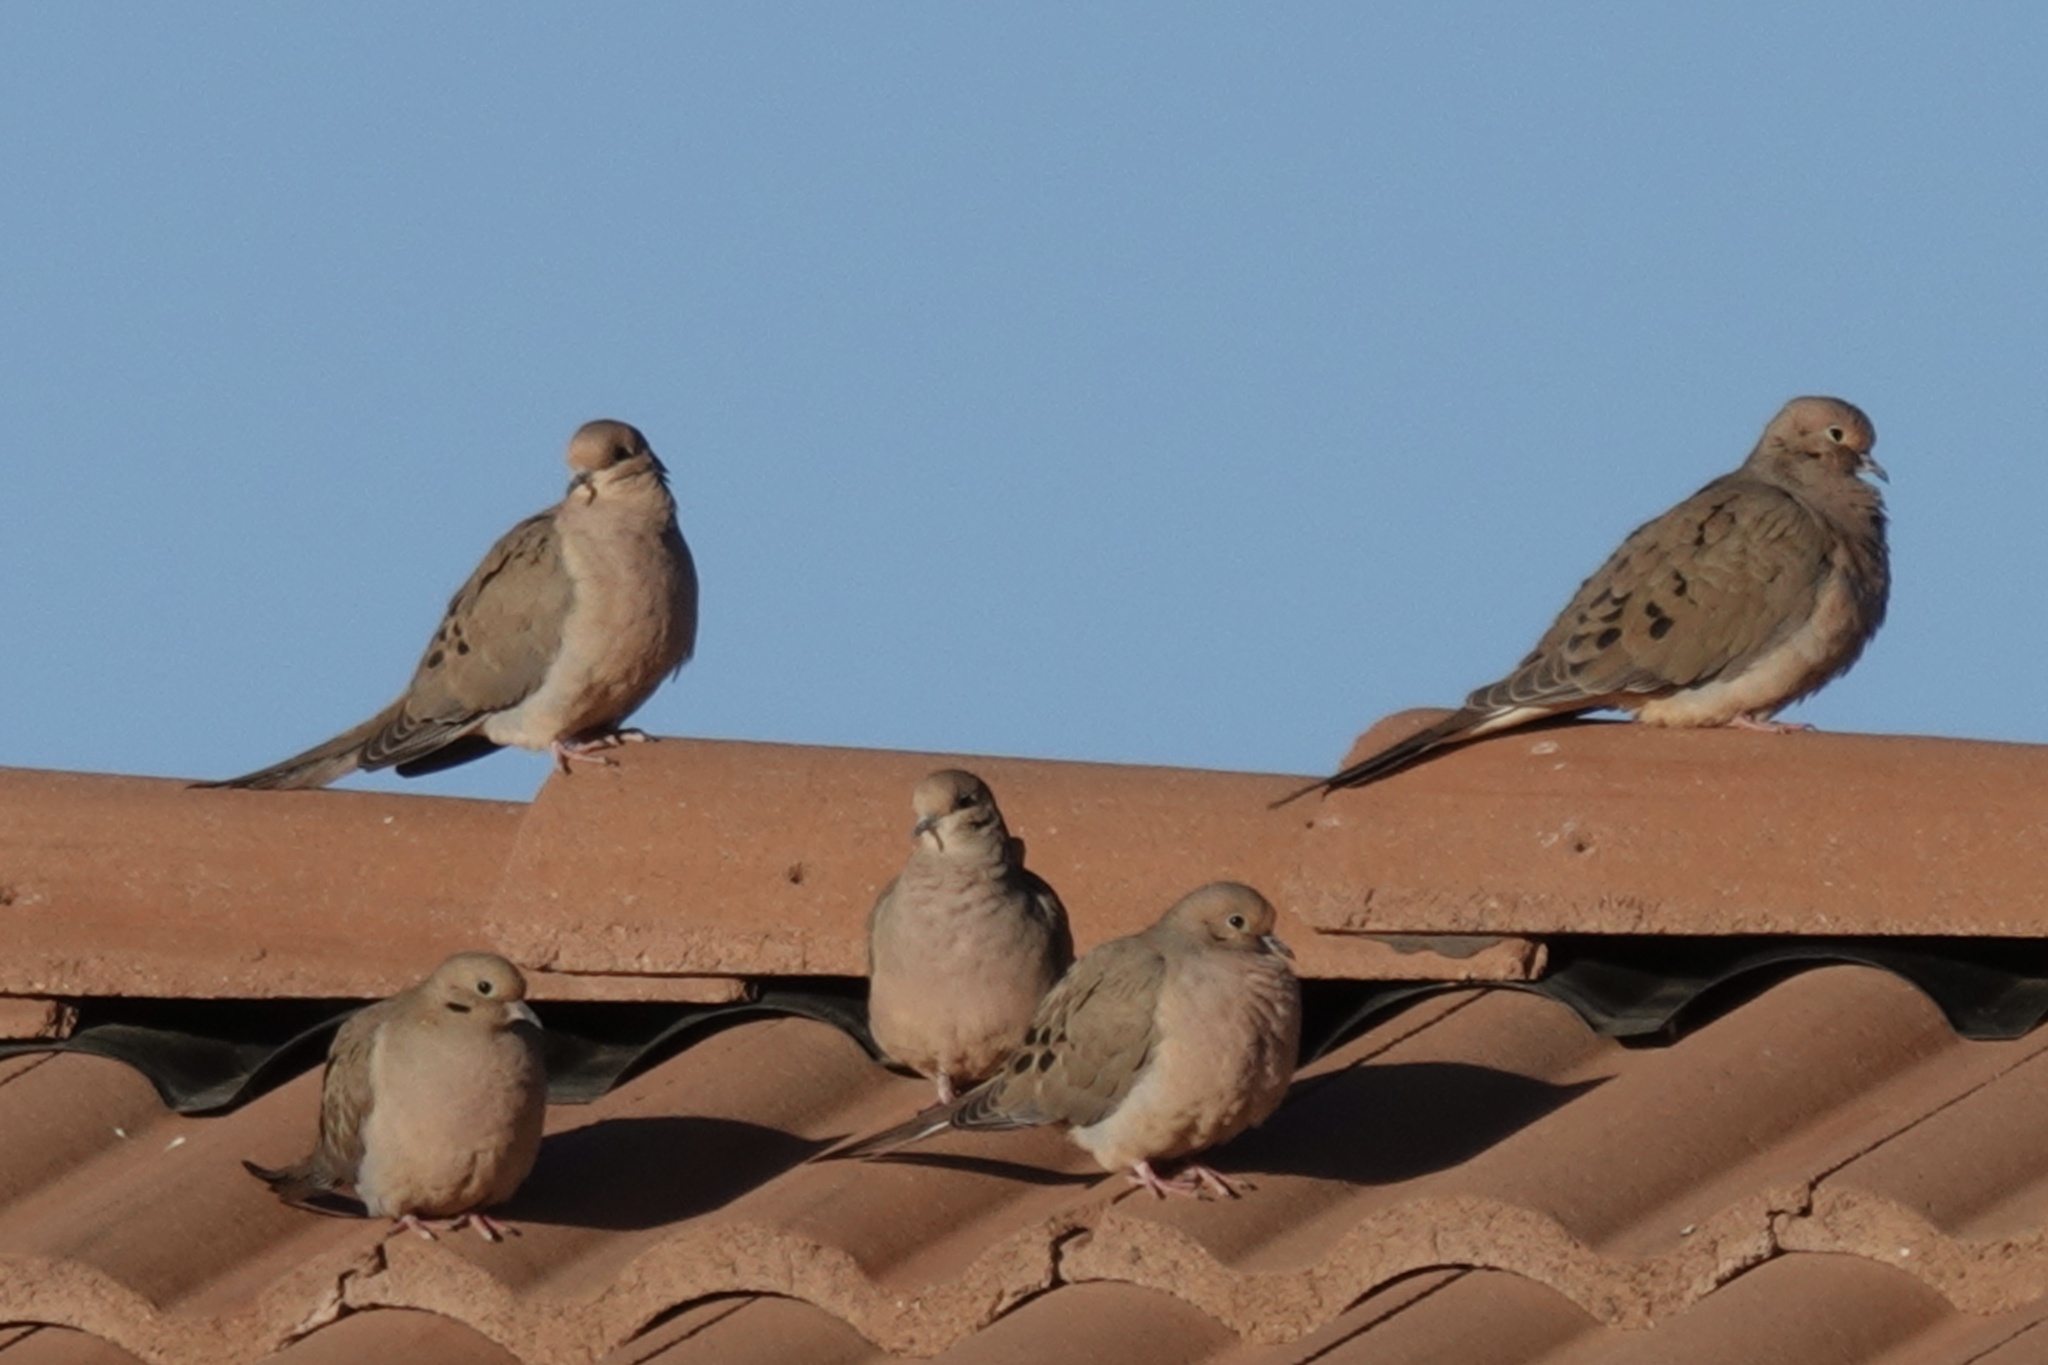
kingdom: Animalia
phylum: Chordata
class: Aves
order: Columbiformes
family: Columbidae
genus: Zenaida
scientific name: Zenaida macroura
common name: Mourning dove
